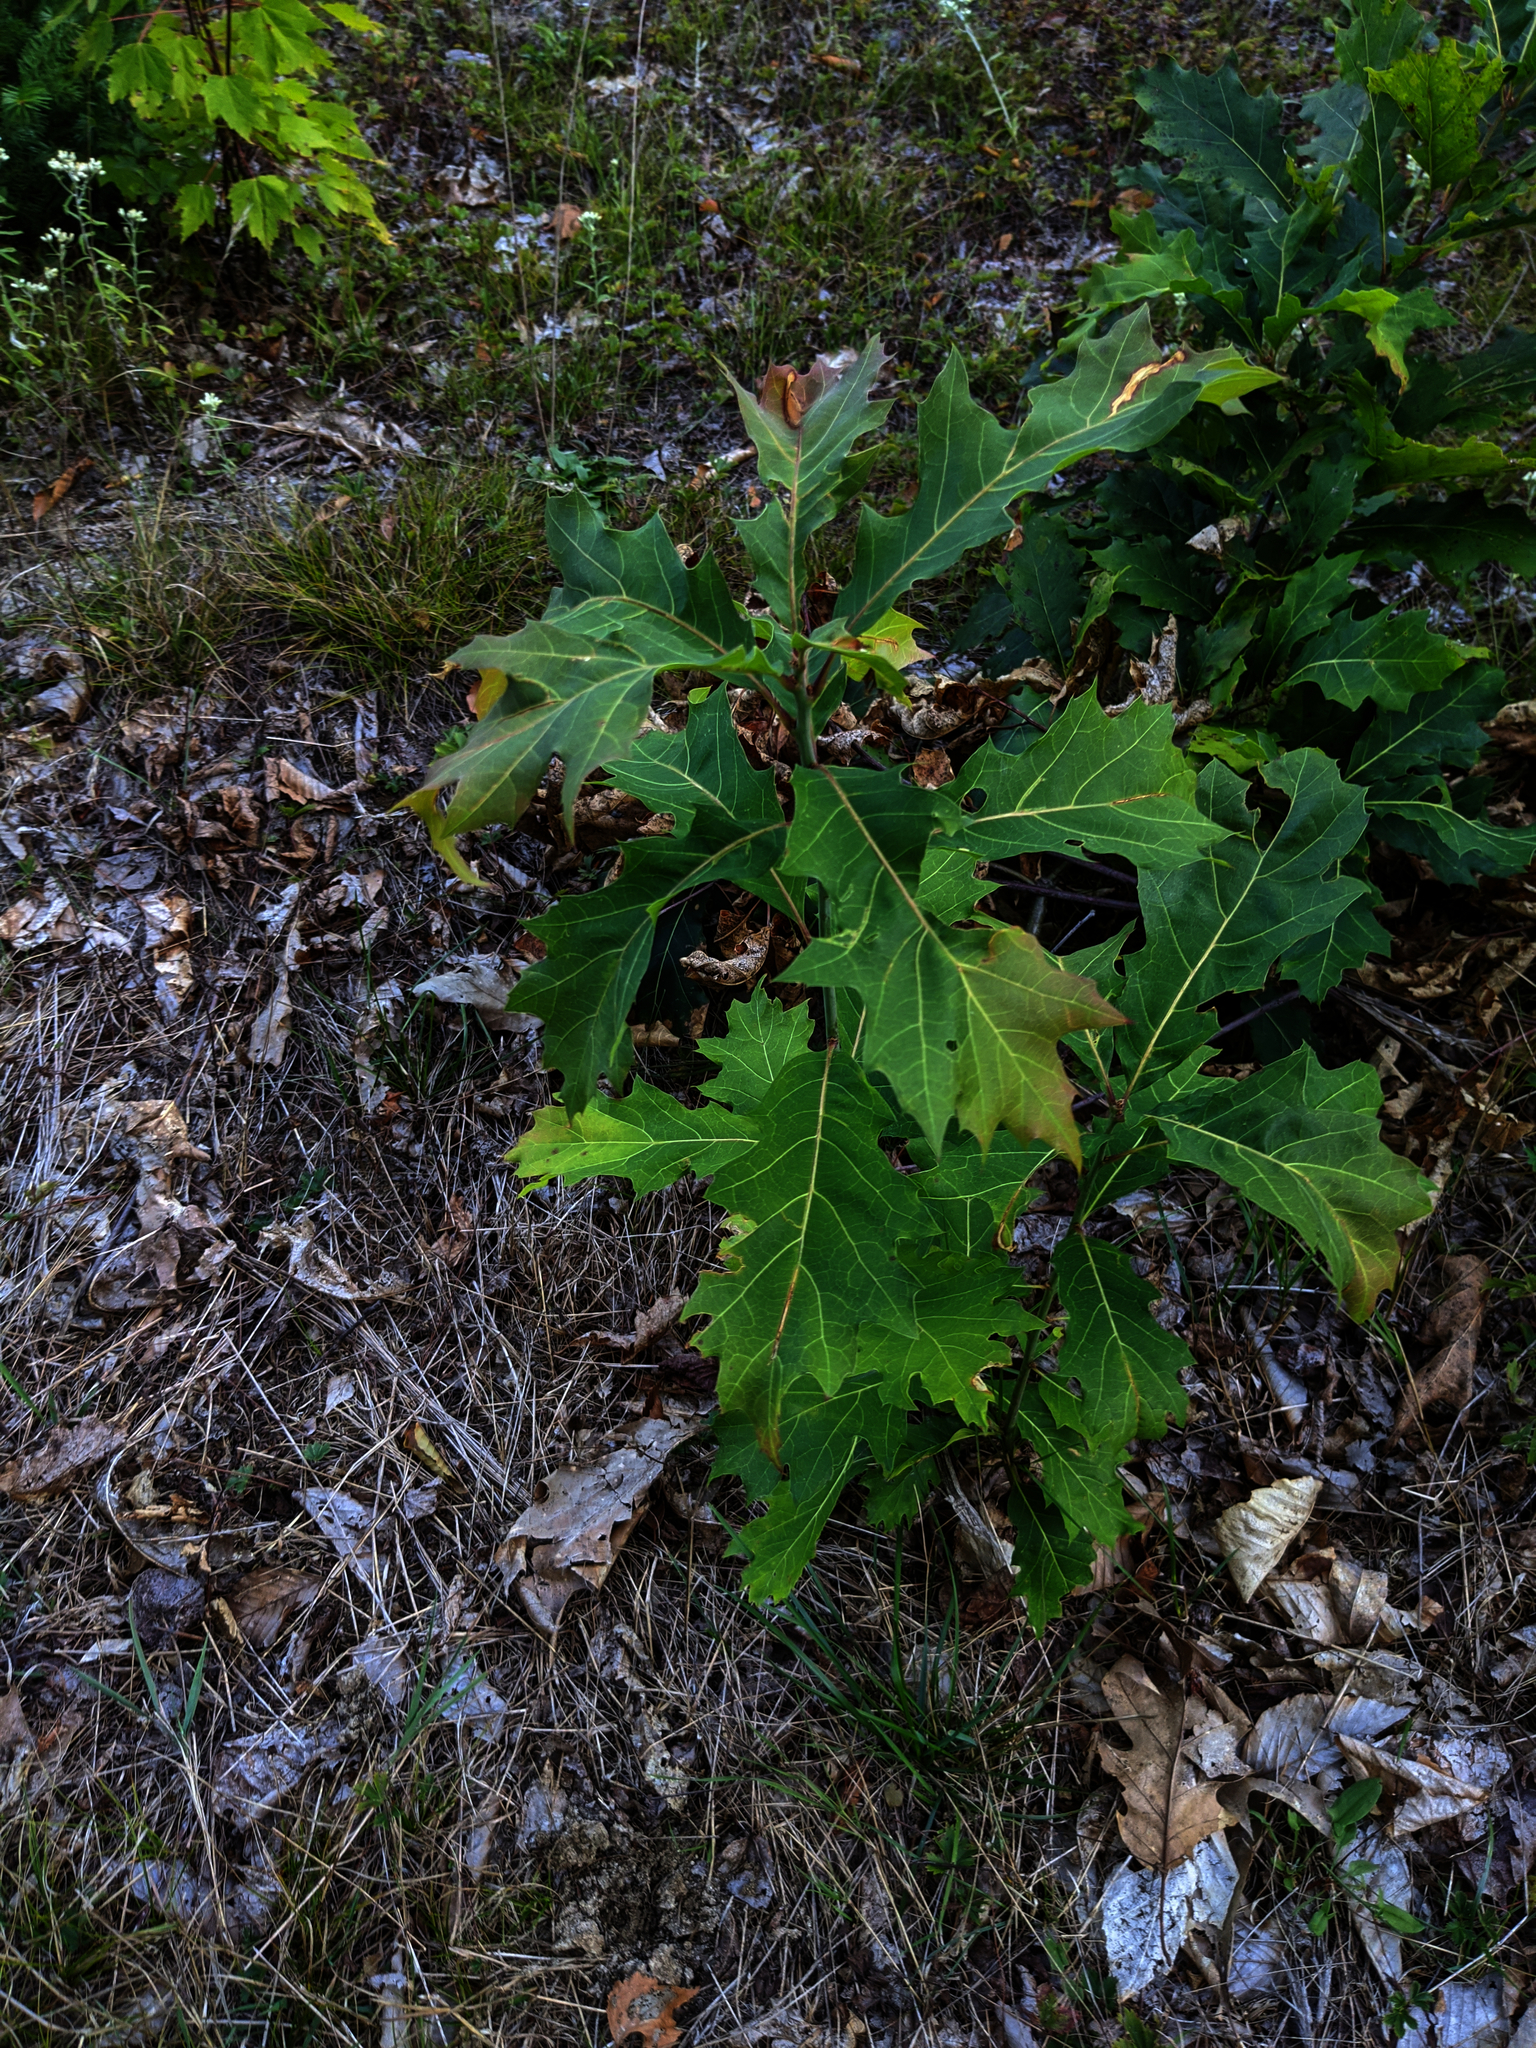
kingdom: Plantae
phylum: Tracheophyta
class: Magnoliopsida
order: Fagales
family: Fagaceae
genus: Quercus
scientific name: Quercus rubra
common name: Red oak
